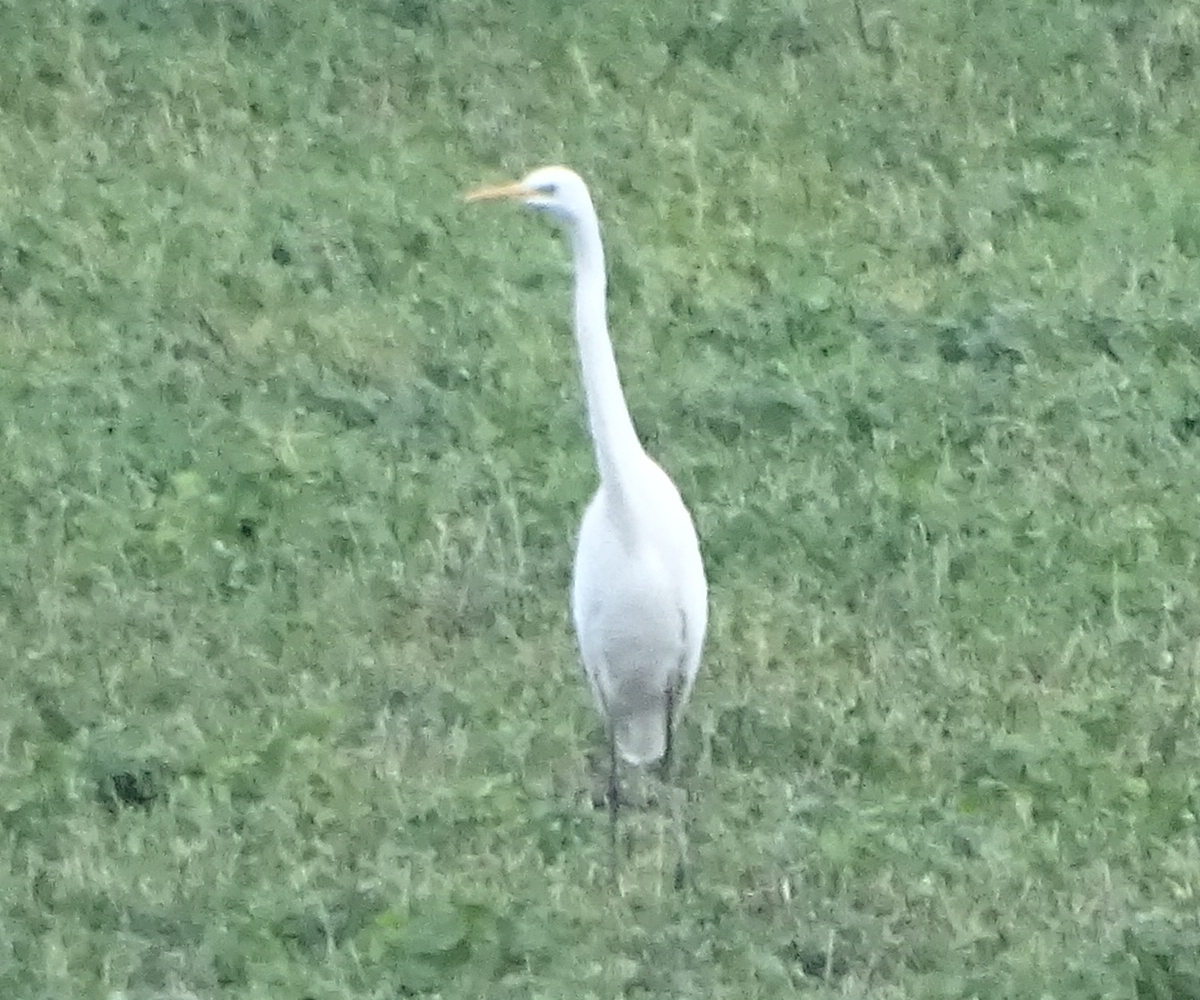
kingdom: Animalia
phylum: Chordata
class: Aves
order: Pelecaniformes
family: Ardeidae
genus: Ardea
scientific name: Ardea alba
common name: Great egret
